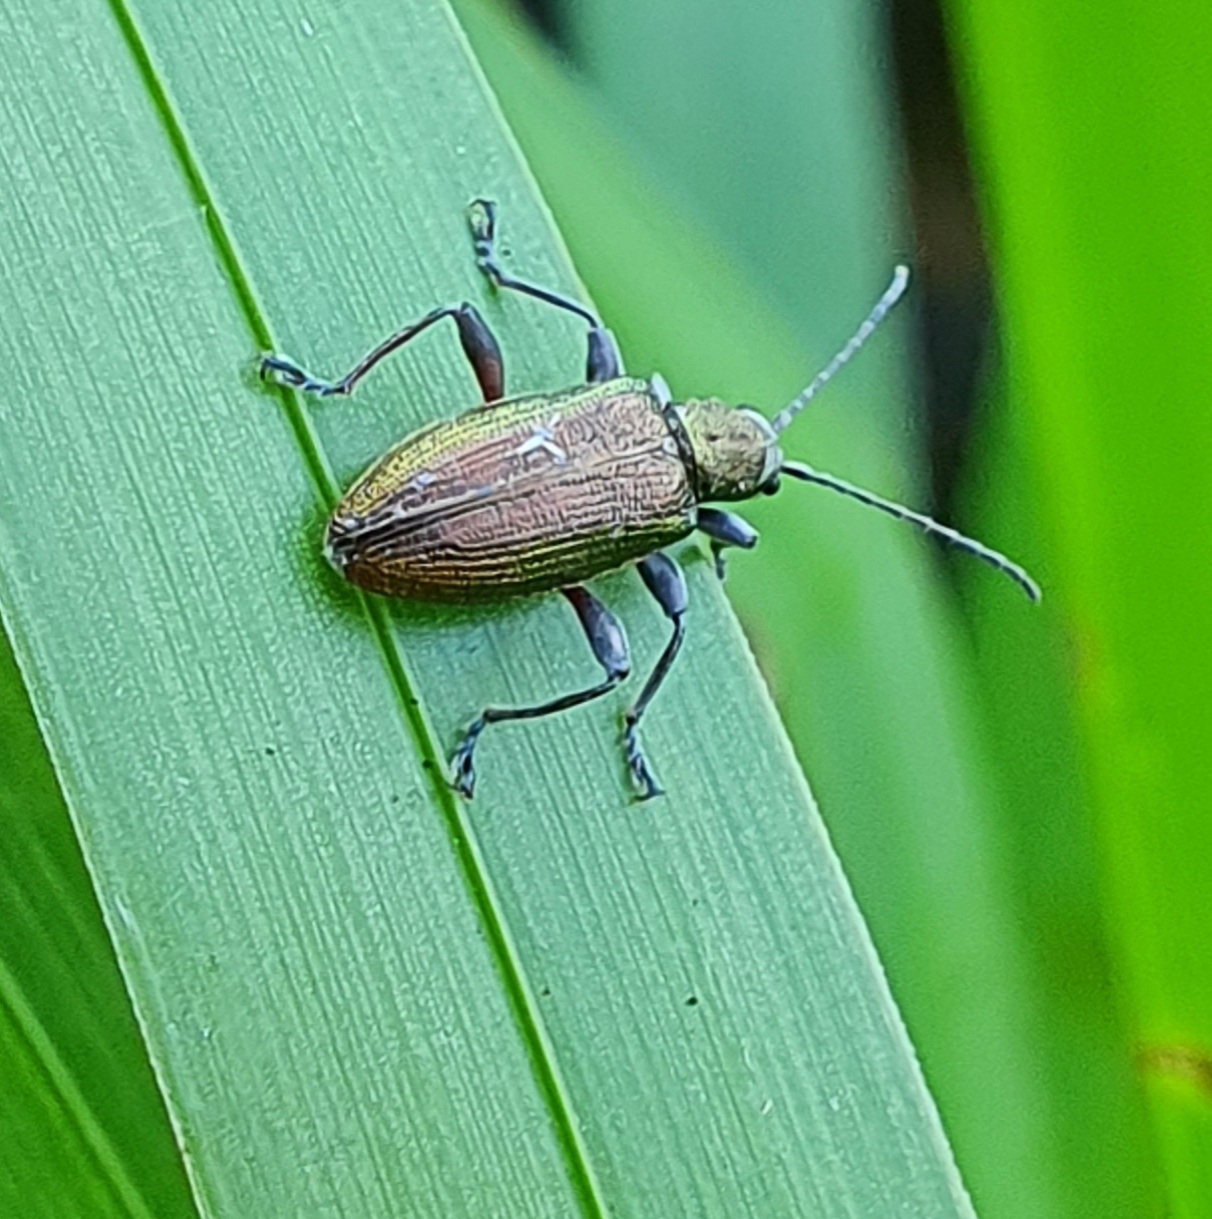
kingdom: Animalia
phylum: Arthropoda
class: Insecta
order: Coleoptera
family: Chrysomelidae
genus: Donacia
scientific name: Donacia semicuprea
